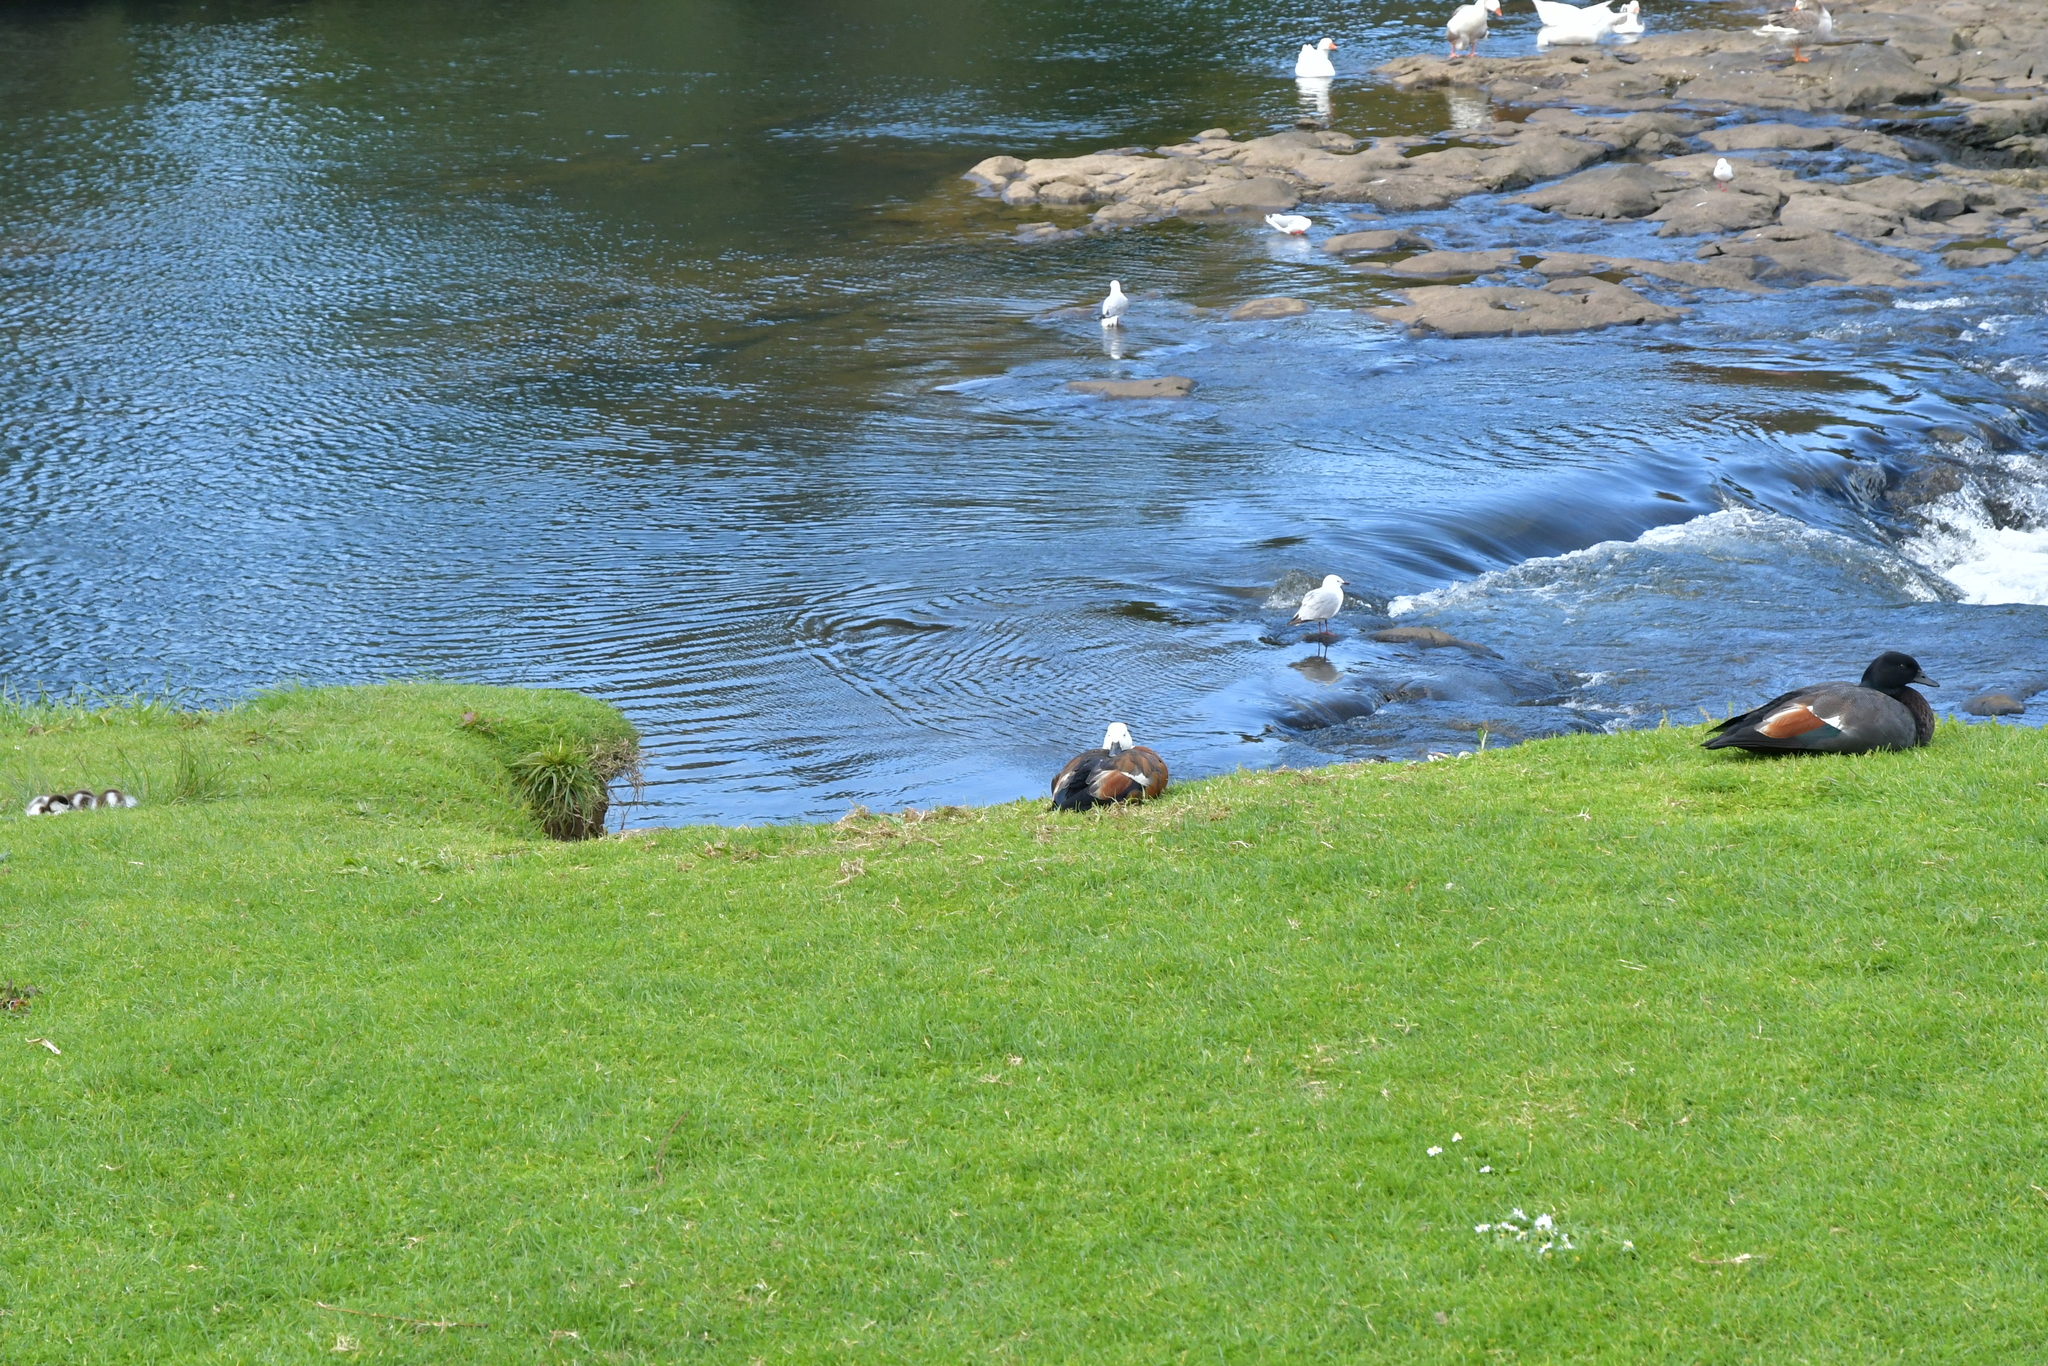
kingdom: Animalia
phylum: Chordata
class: Aves
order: Anseriformes
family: Anatidae
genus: Tadorna
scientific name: Tadorna variegata
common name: Paradise shelduck
